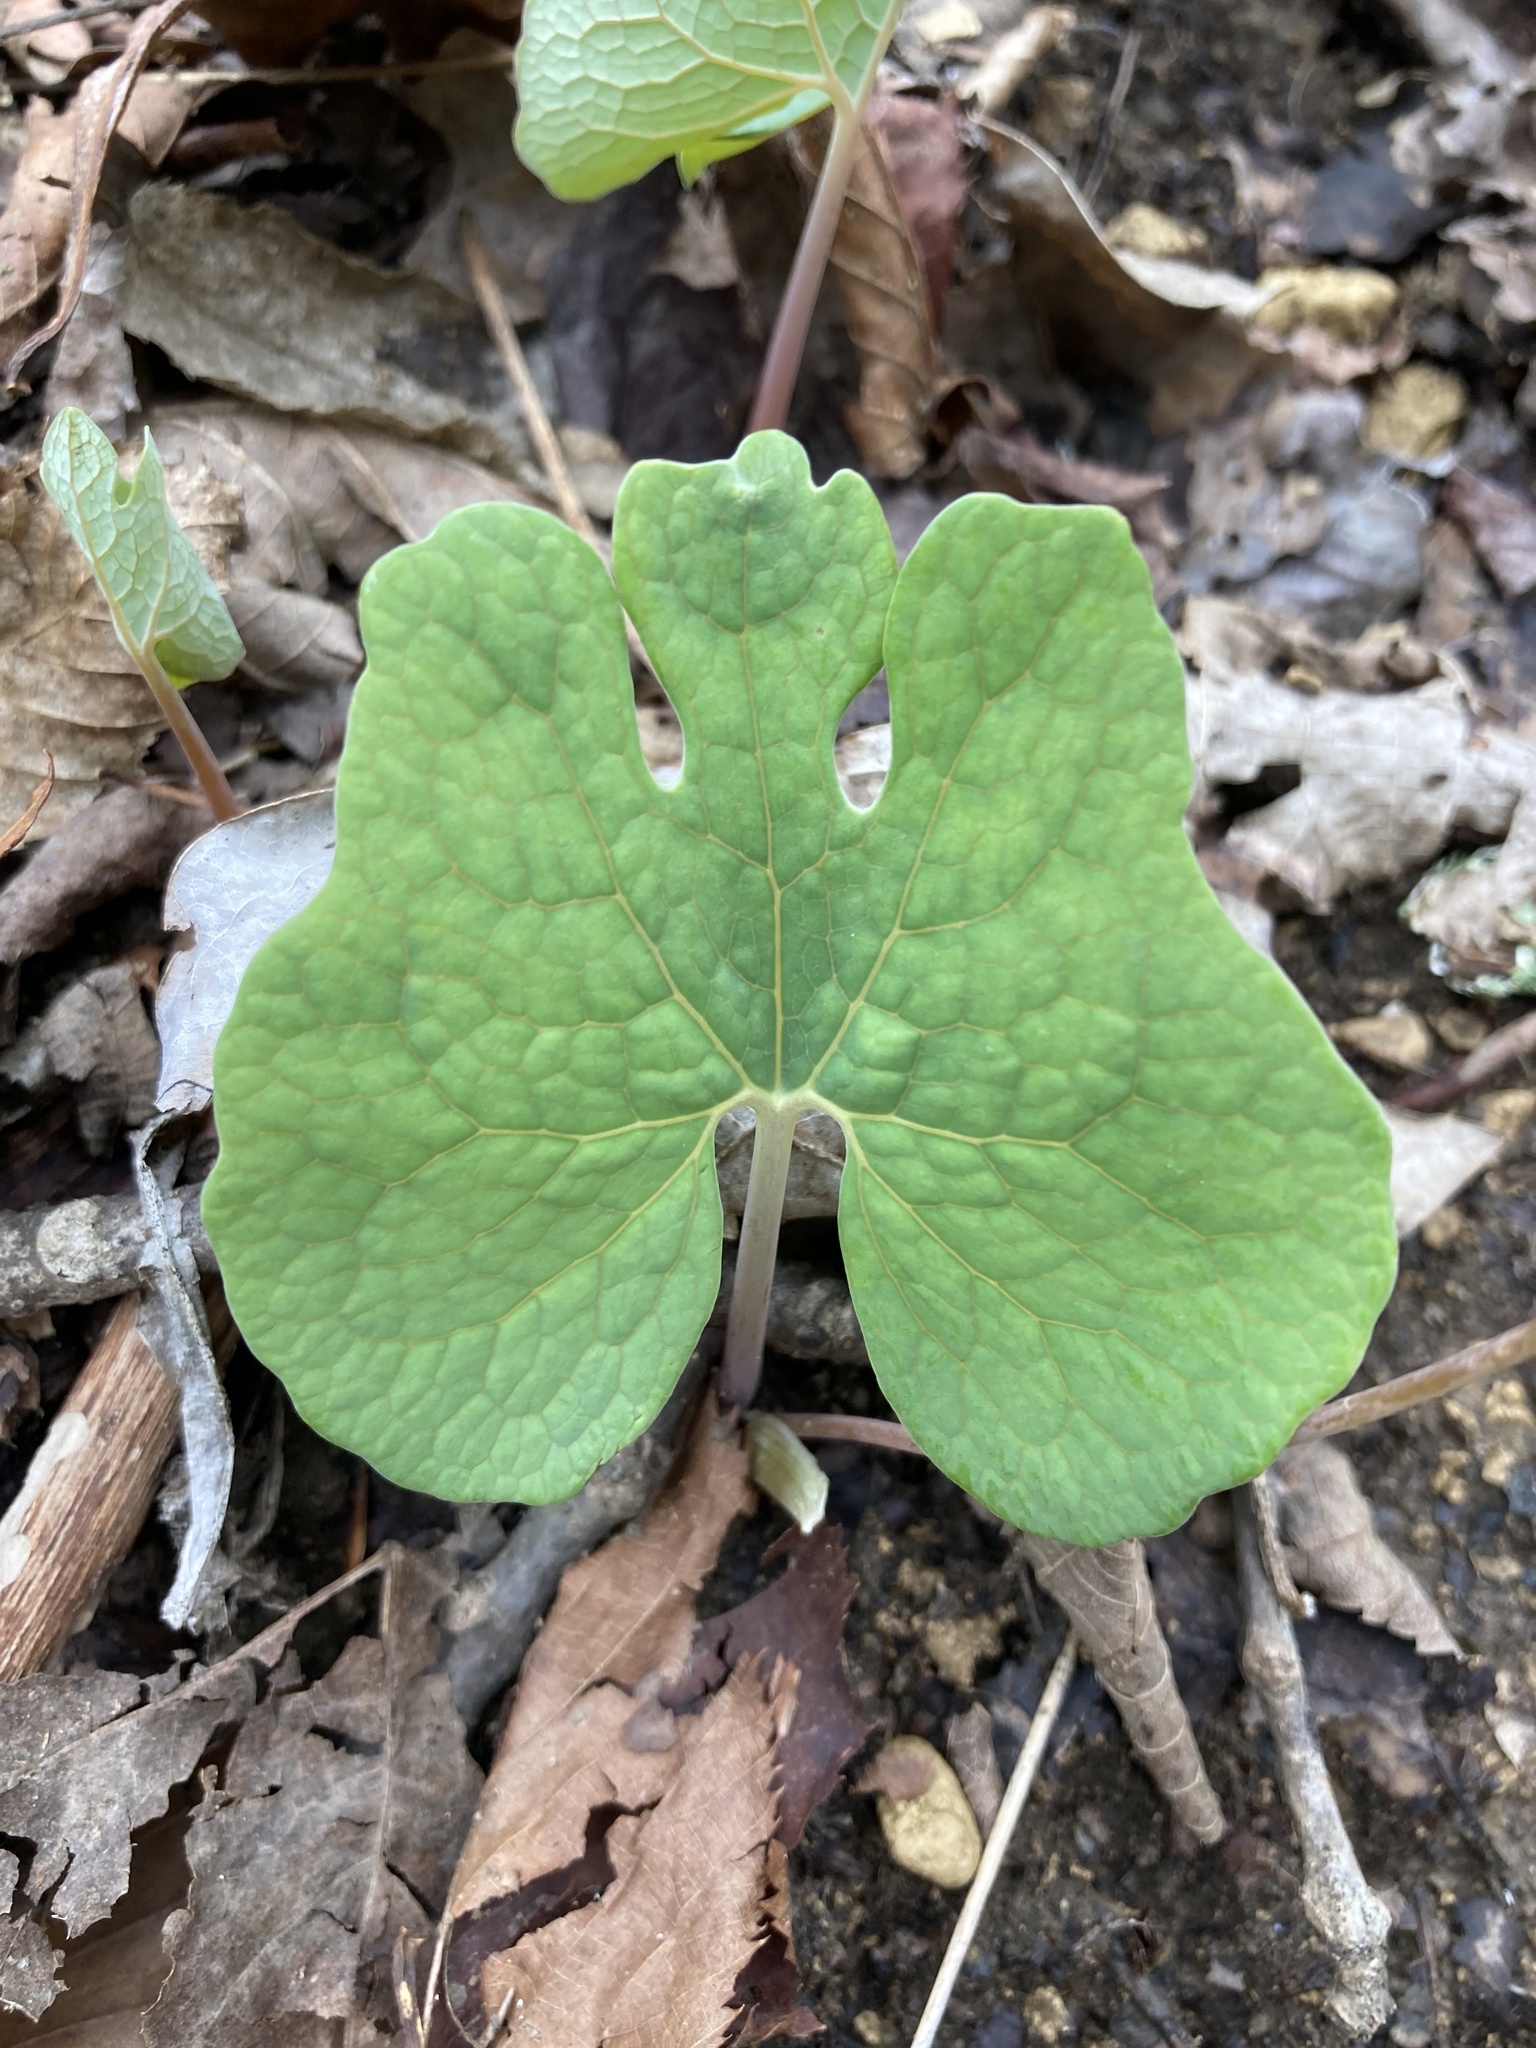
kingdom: Plantae
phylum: Tracheophyta
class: Magnoliopsida
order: Ranunculales
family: Papaveraceae
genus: Sanguinaria
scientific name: Sanguinaria canadensis
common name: Bloodroot
